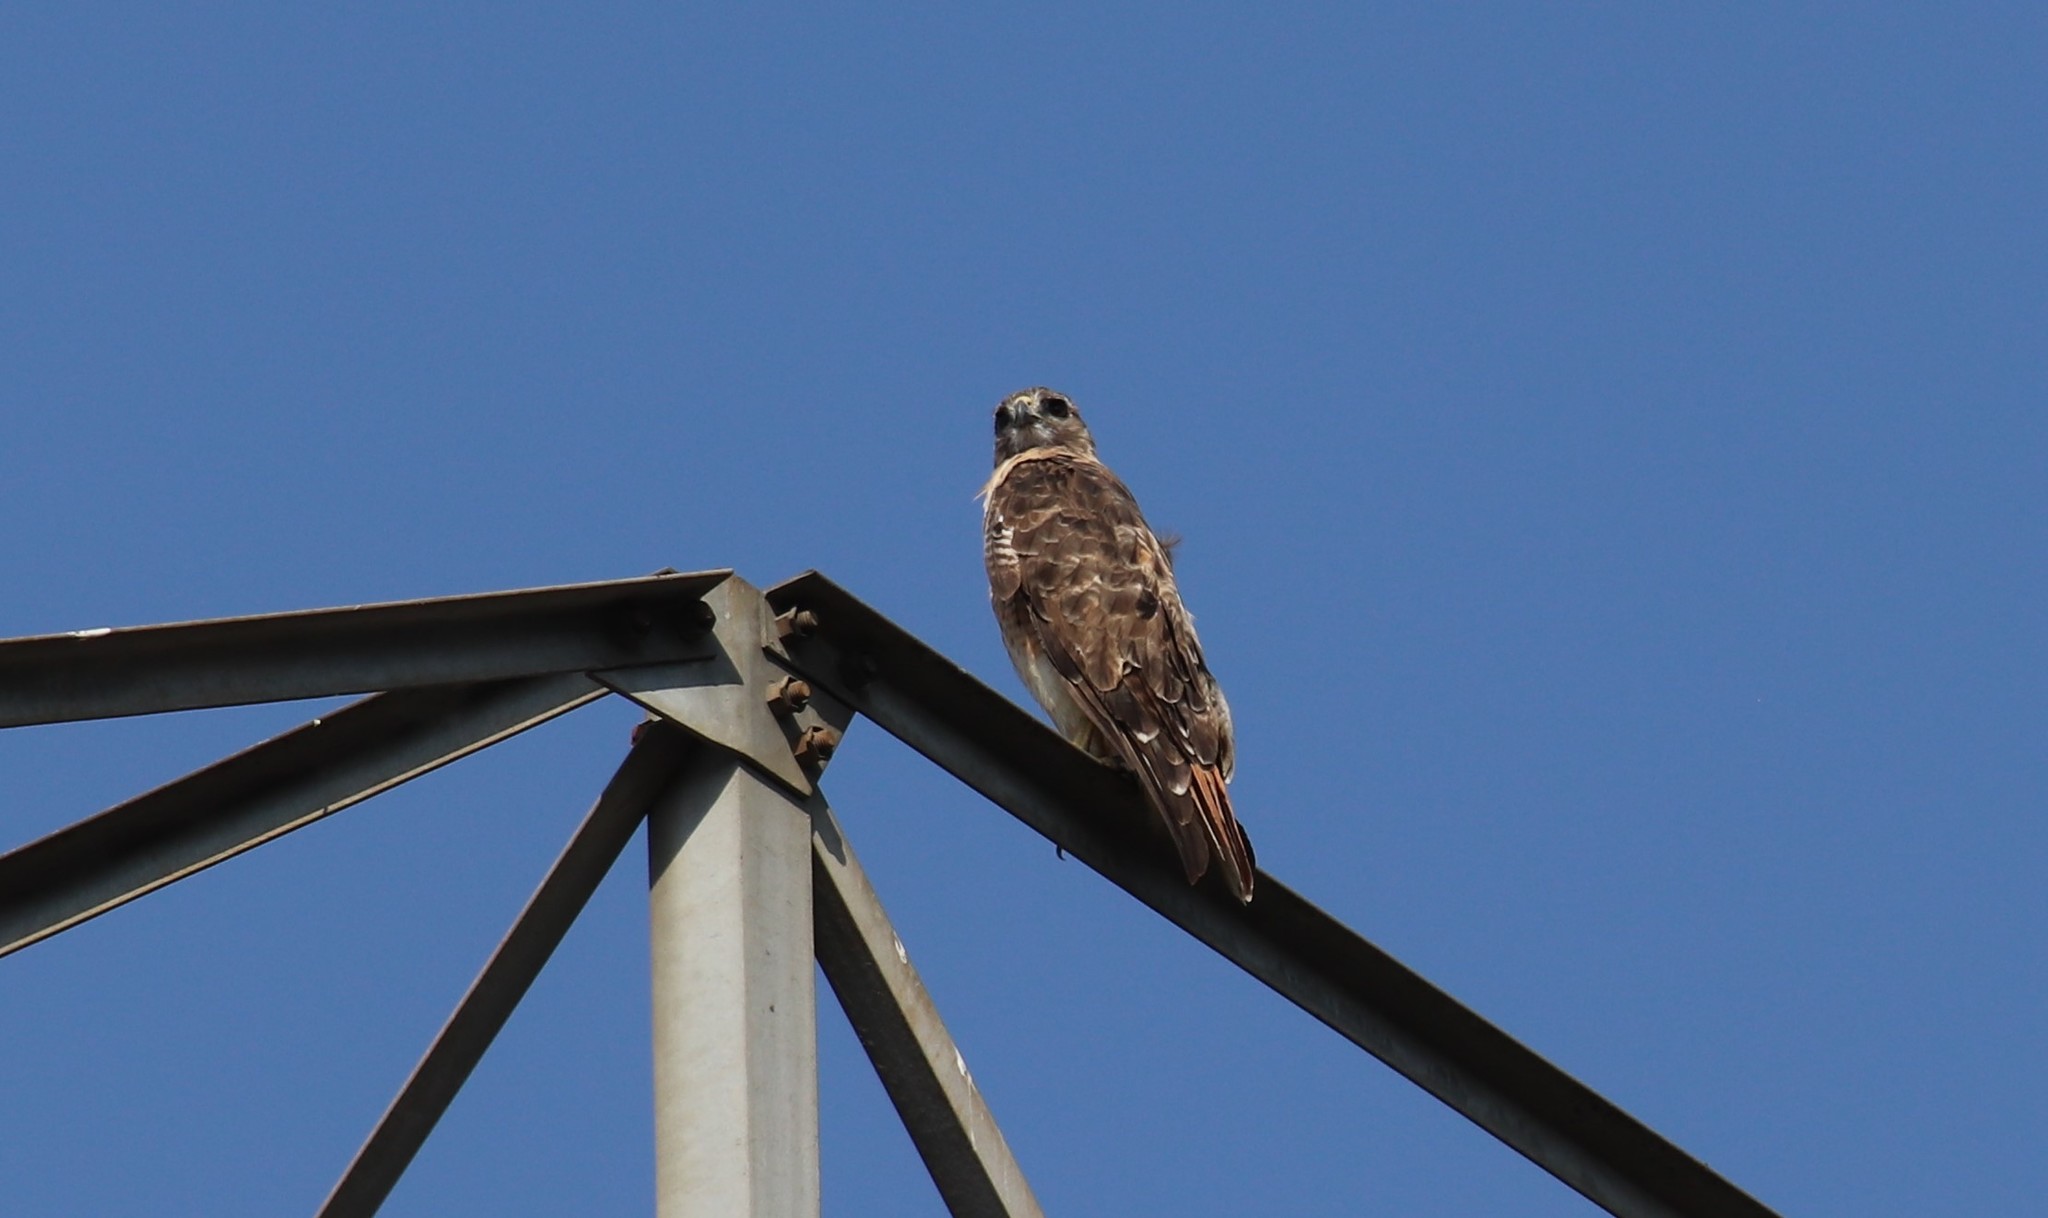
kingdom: Animalia
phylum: Chordata
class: Aves
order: Accipitriformes
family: Accipitridae
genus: Buteo
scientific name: Buteo jamaicensis
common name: Red-tailed hawk
